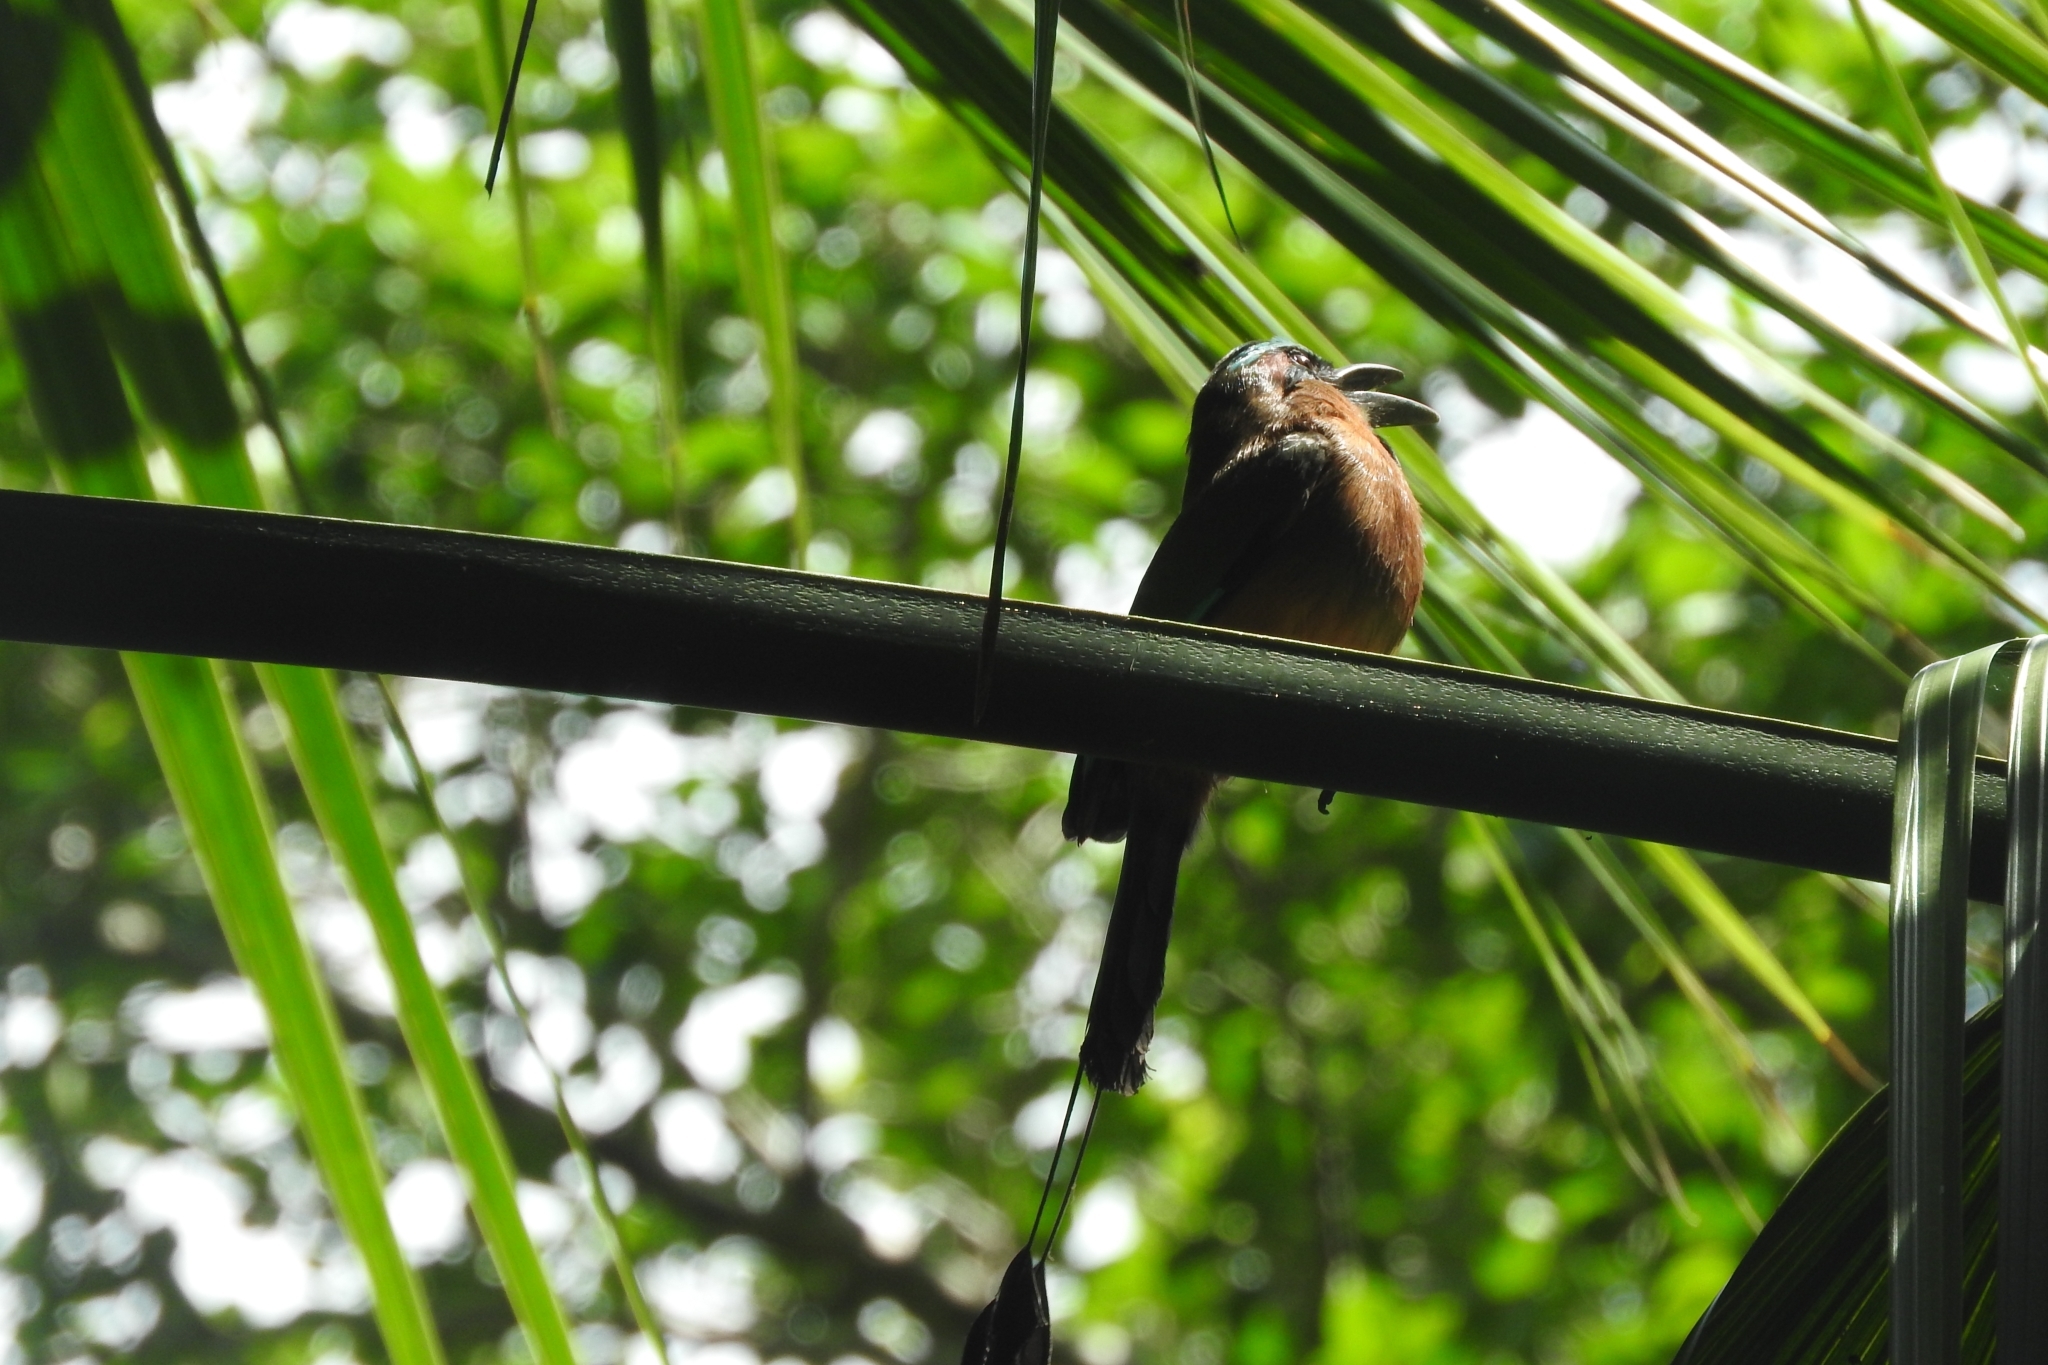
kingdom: Animalia
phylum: Chordata
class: Aves
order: Coraciiformes
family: Momotidae
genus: Eumomota
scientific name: Eumomota superciliosa
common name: Turquoise-browed motmot
